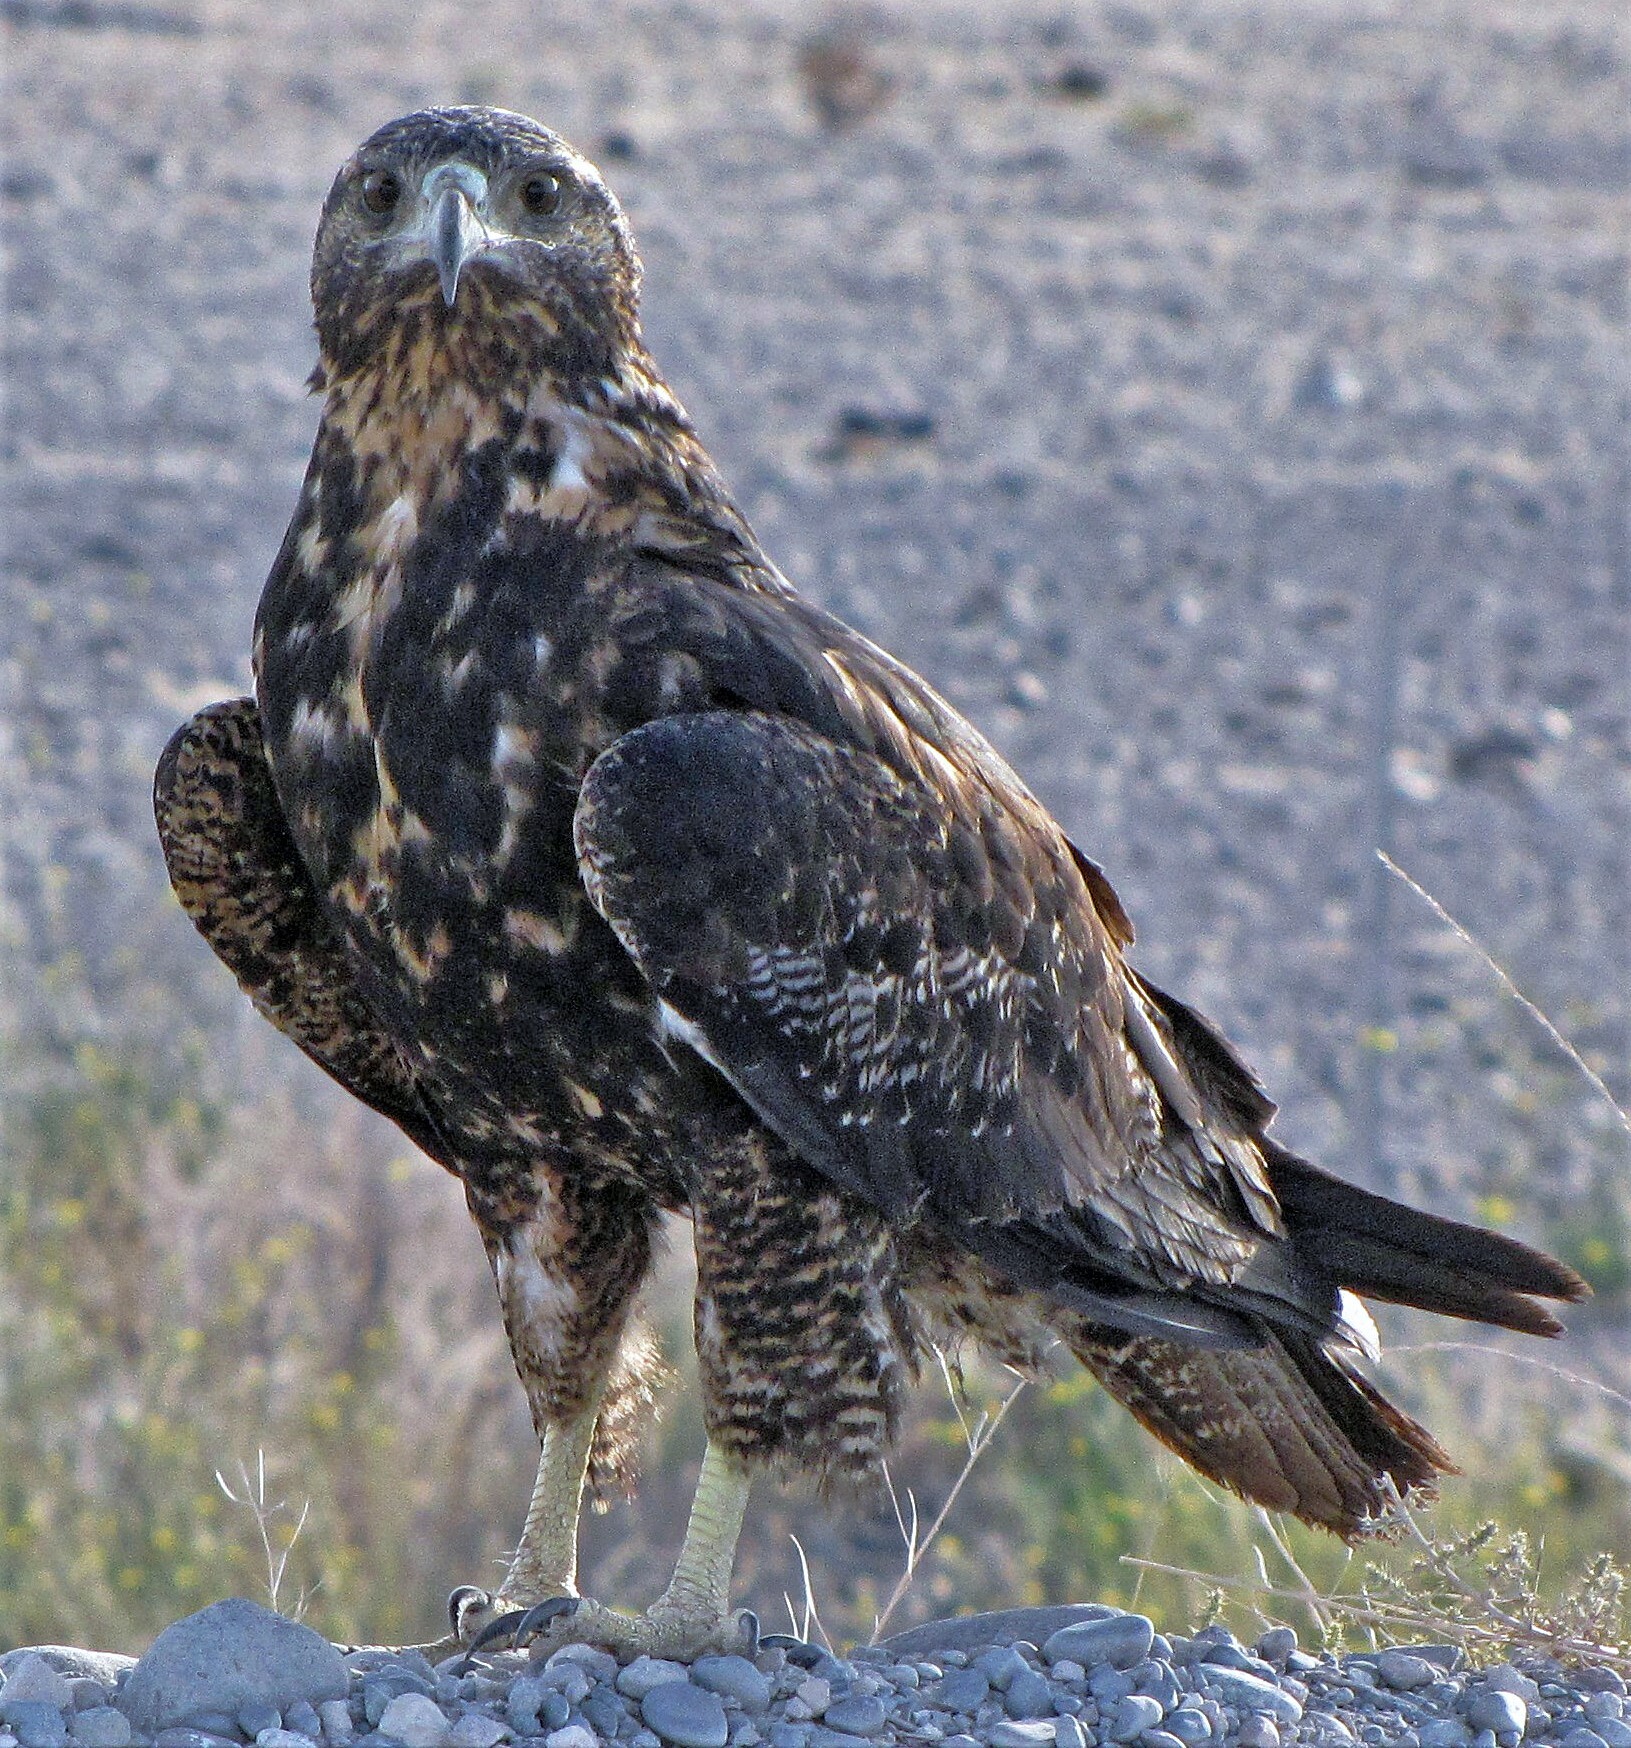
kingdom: Animalia
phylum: Chordata
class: Aves
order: Accipitriformes
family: Accipitridae
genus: Geranoaetus
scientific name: Geranoaetus melanoleucus
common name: Black-chested buzzard-eagle
